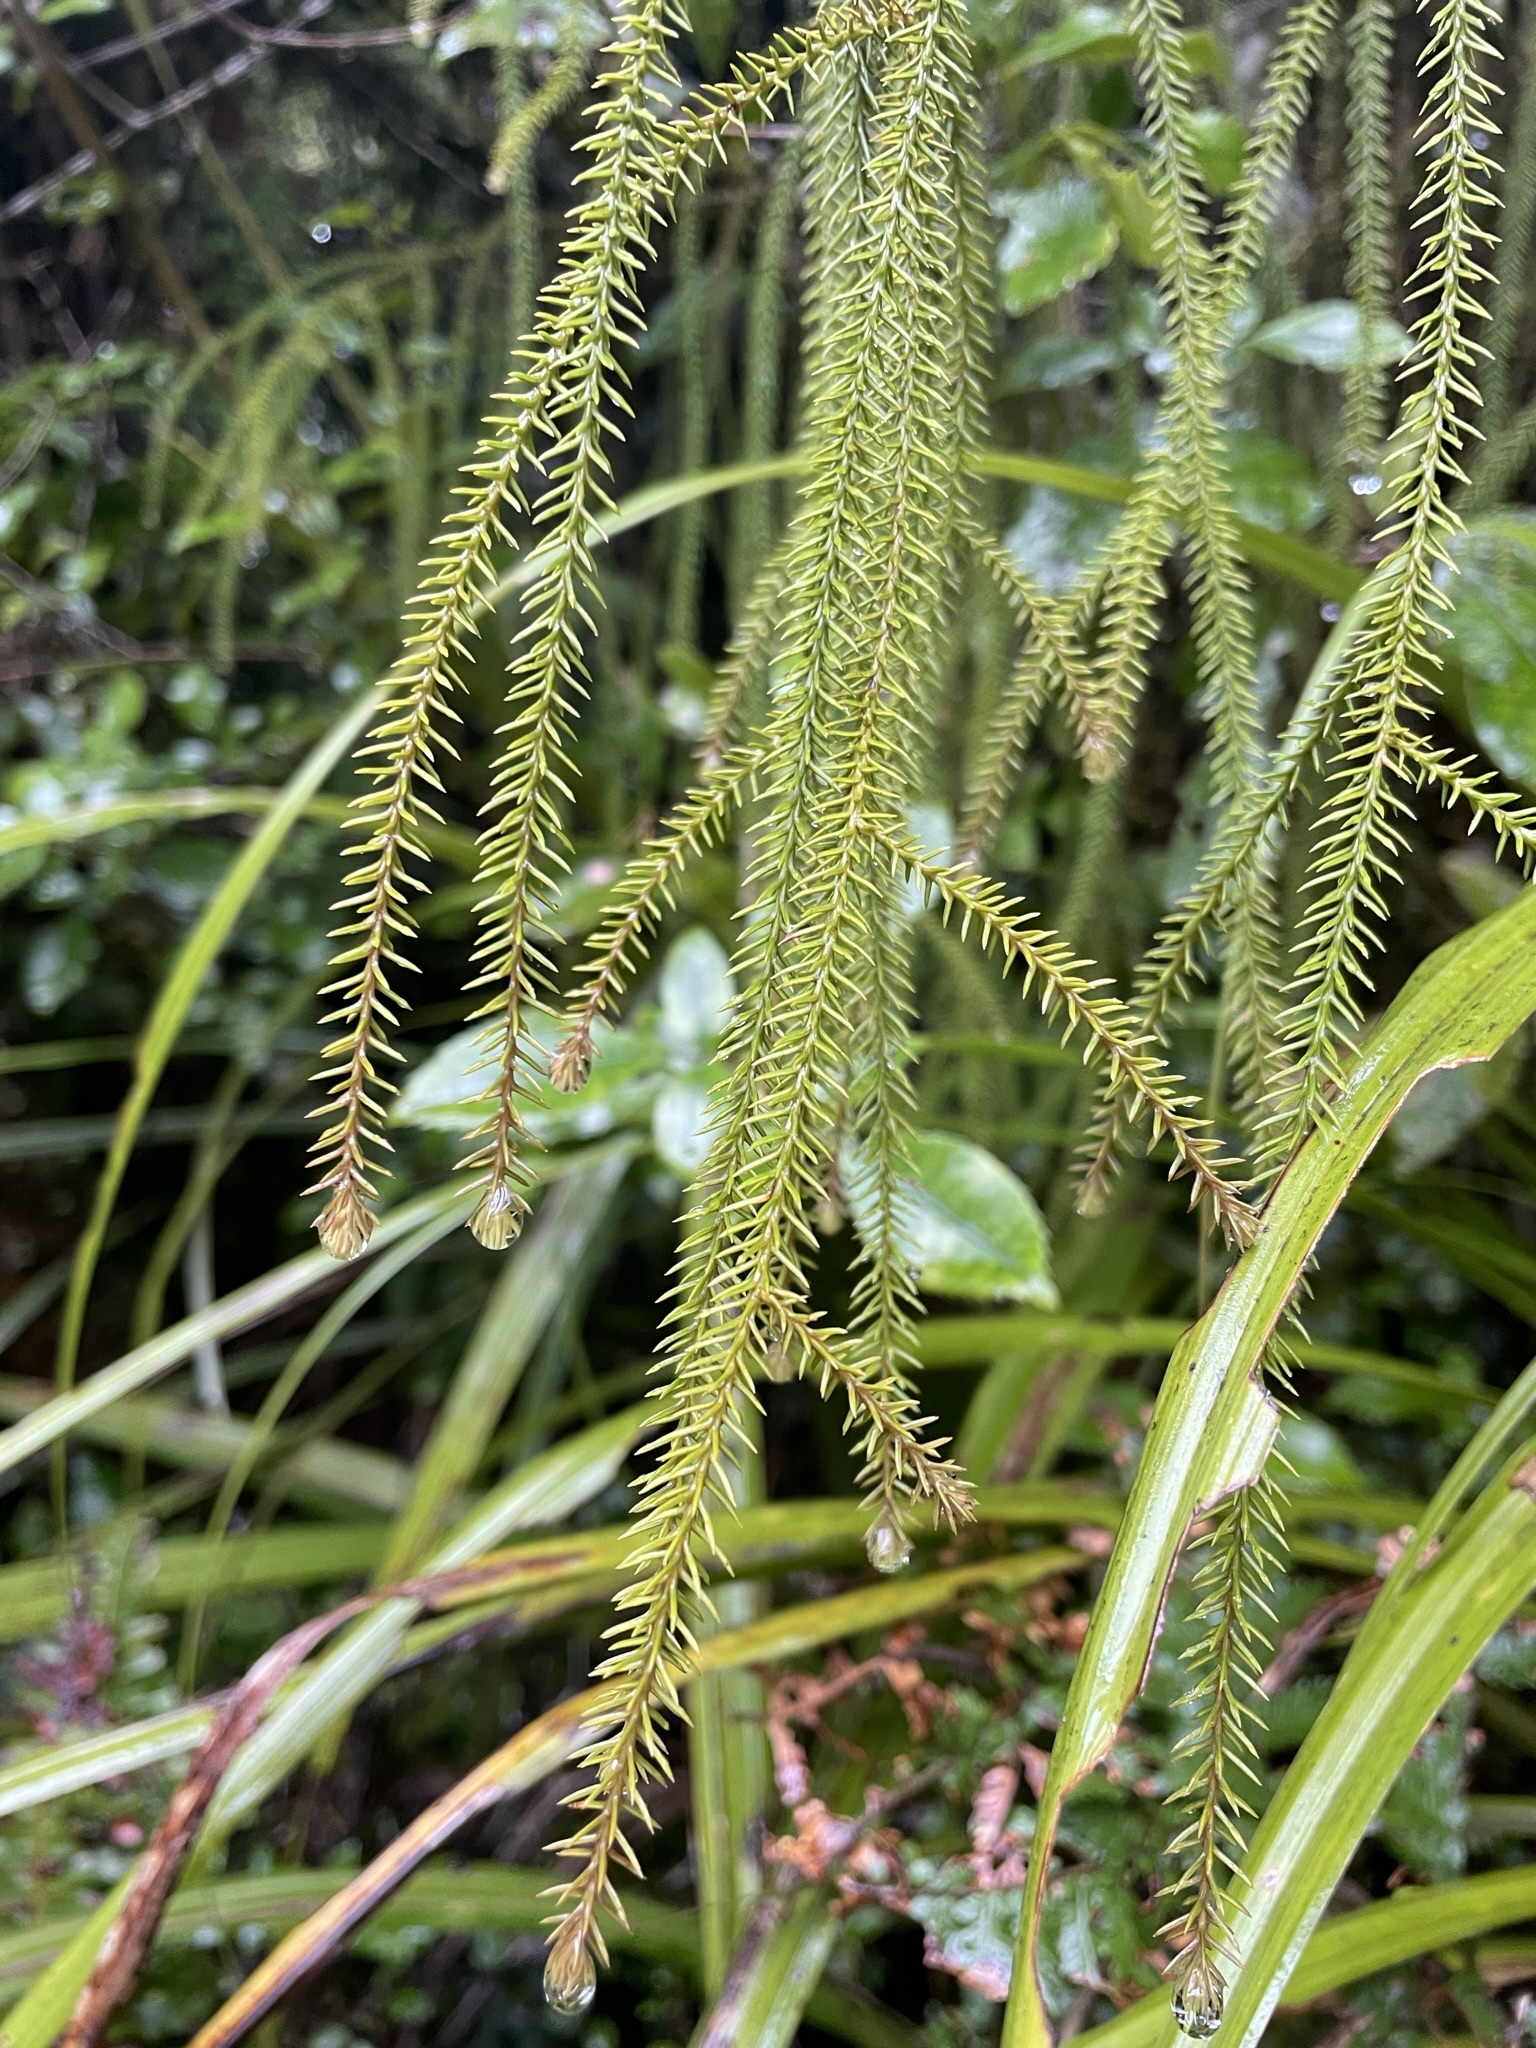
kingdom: Plantae
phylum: Tracheophyta
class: Pinopsida
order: Pinales
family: Podocarpaceae
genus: Dacrydium
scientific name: Dacrydium cupressinum
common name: Red pine
